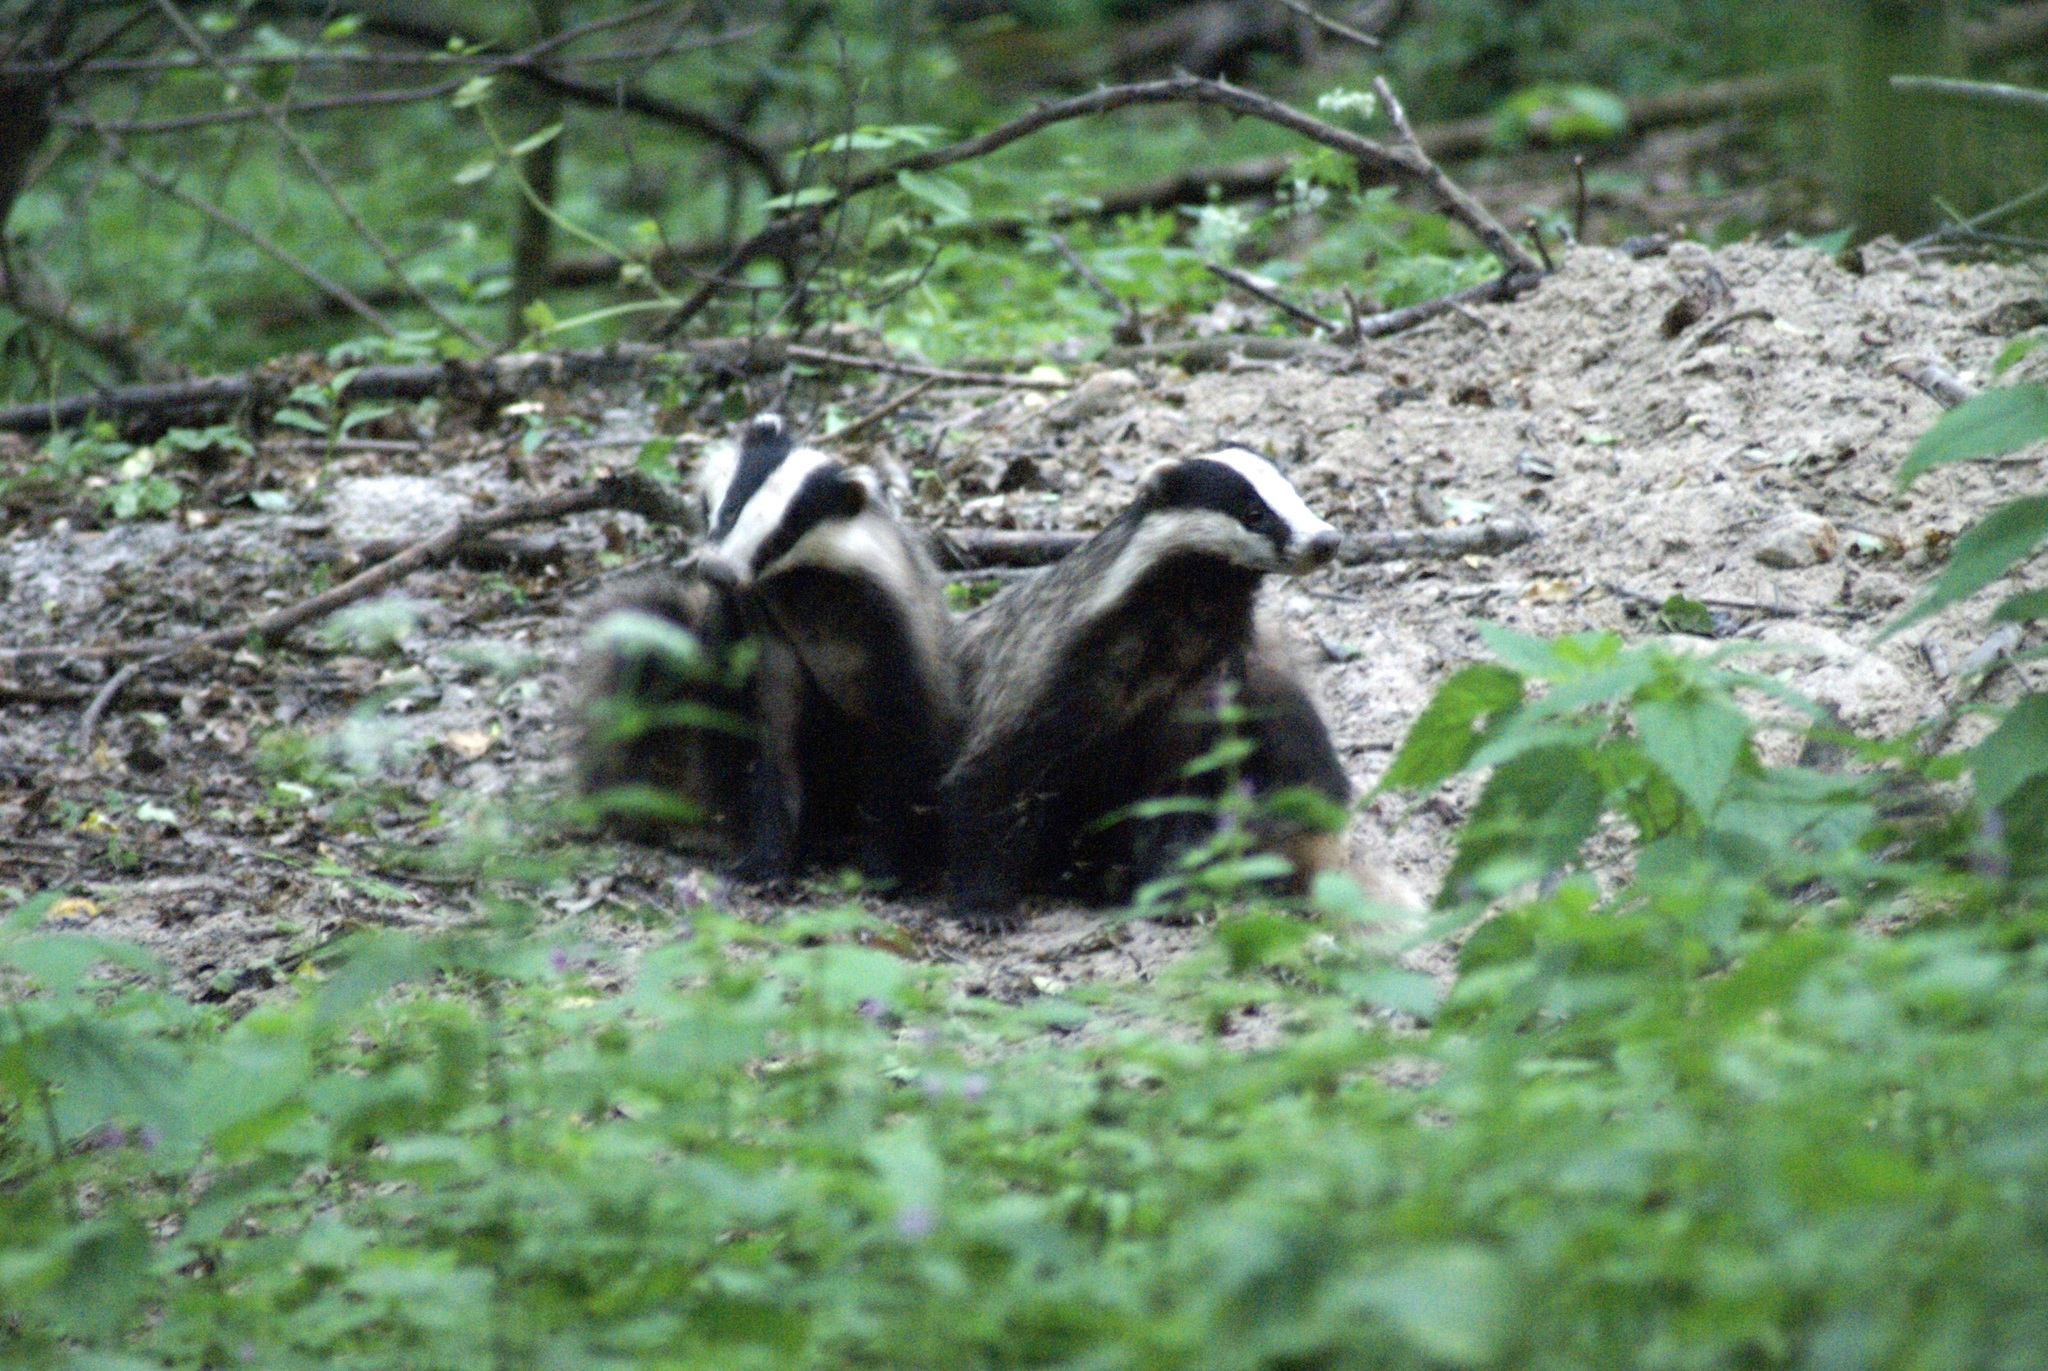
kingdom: Animalia
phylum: Chordata
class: Mammalia
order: Carnivora
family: Mustelidae
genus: Meles
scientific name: Meles meles
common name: Eurasian badger
